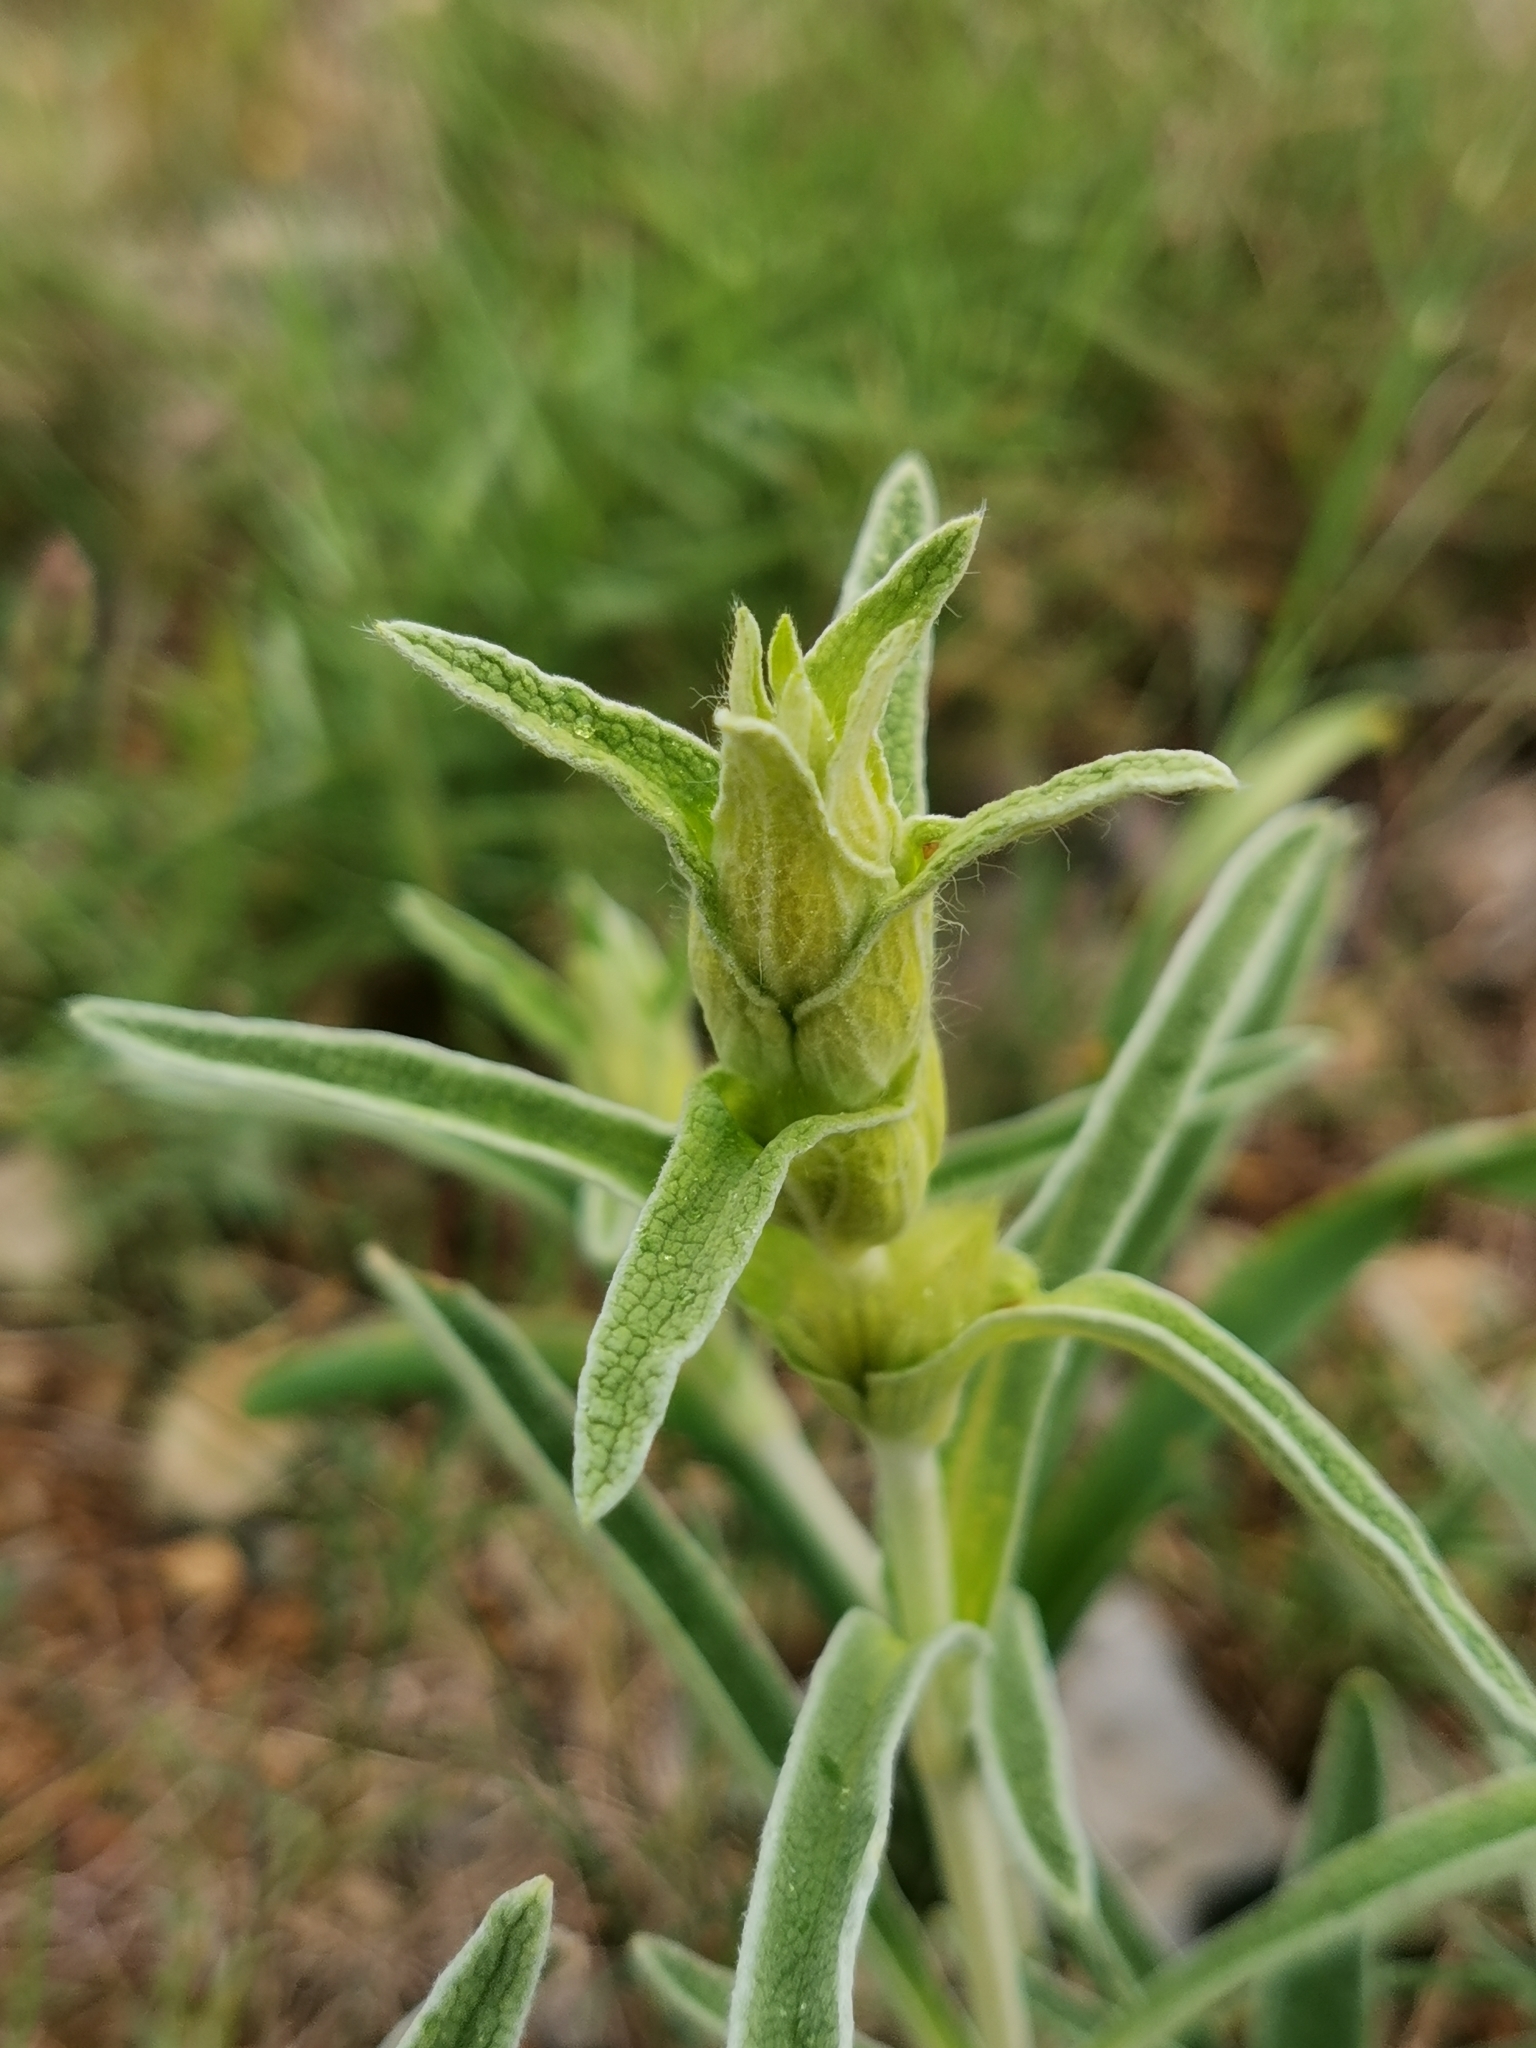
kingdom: Plantae
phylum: Tracheophyta
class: Magnoliopsida
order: Lamiales
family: Lamiaceae
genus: Phlomis
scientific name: Phlomis lychnitis
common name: Lampwickplant
